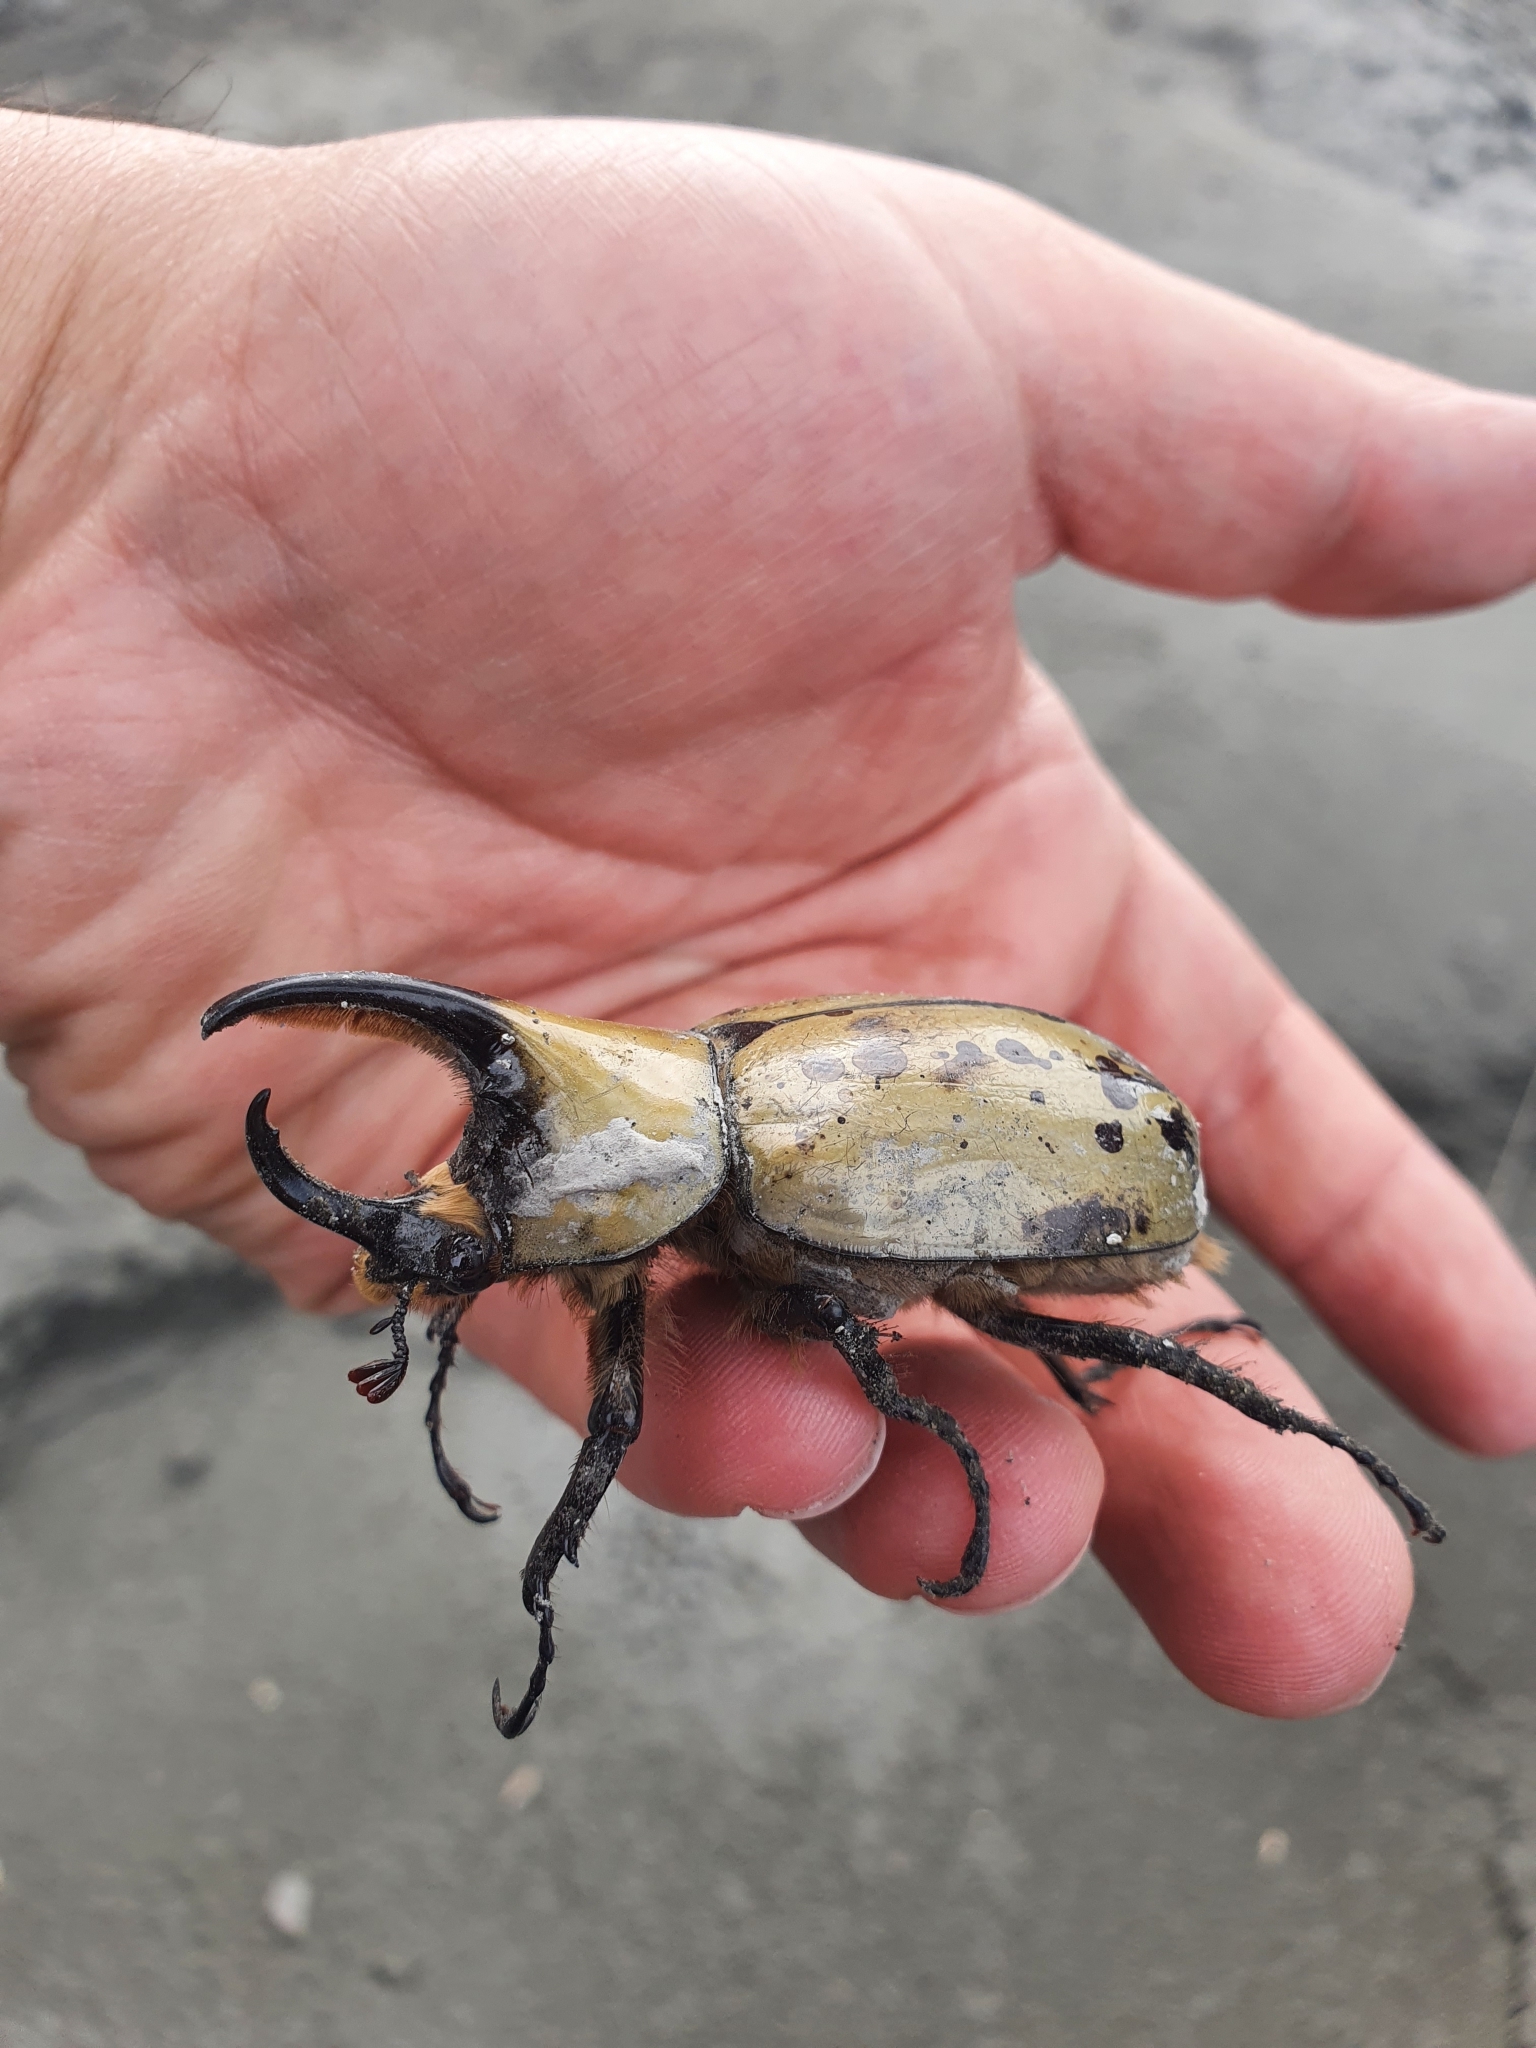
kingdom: Animalia
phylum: Arthropoda
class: Insecta
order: Coleoptera
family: Scarabaeidae
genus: Dynastes
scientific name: Dynastes grantii
